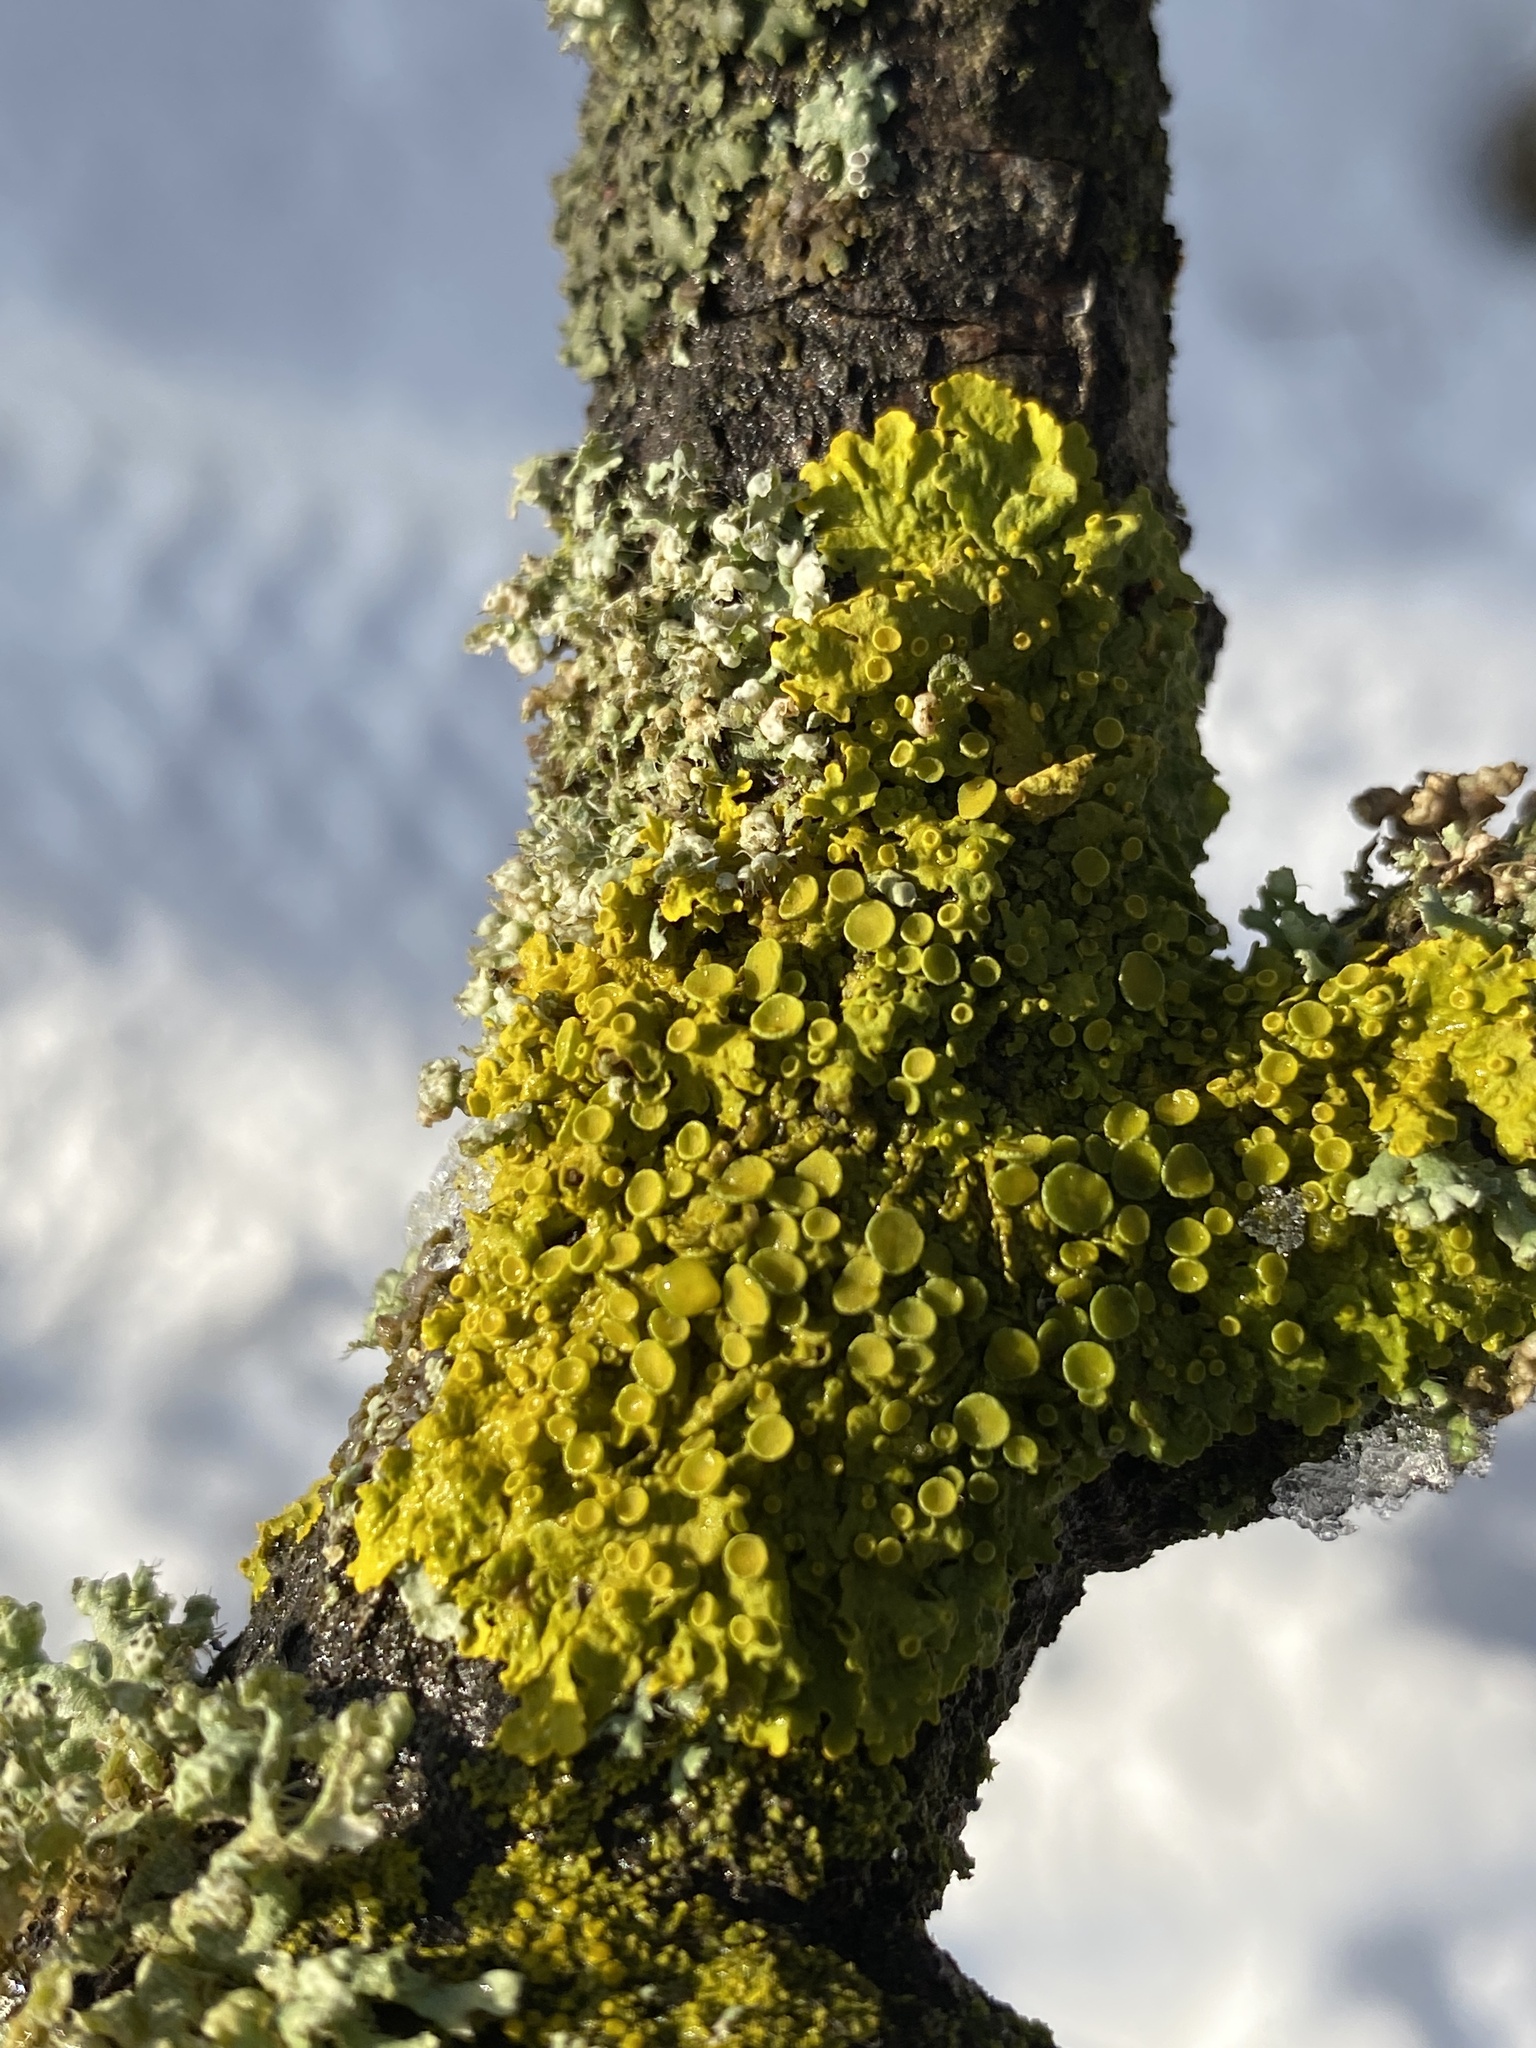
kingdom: Fungi
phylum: Ascomycota
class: Lecanoromycetes
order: Teloschistales
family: Teloschistaceae
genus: Xanthoria
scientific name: Xanthoria parietina
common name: Common orange lichen
